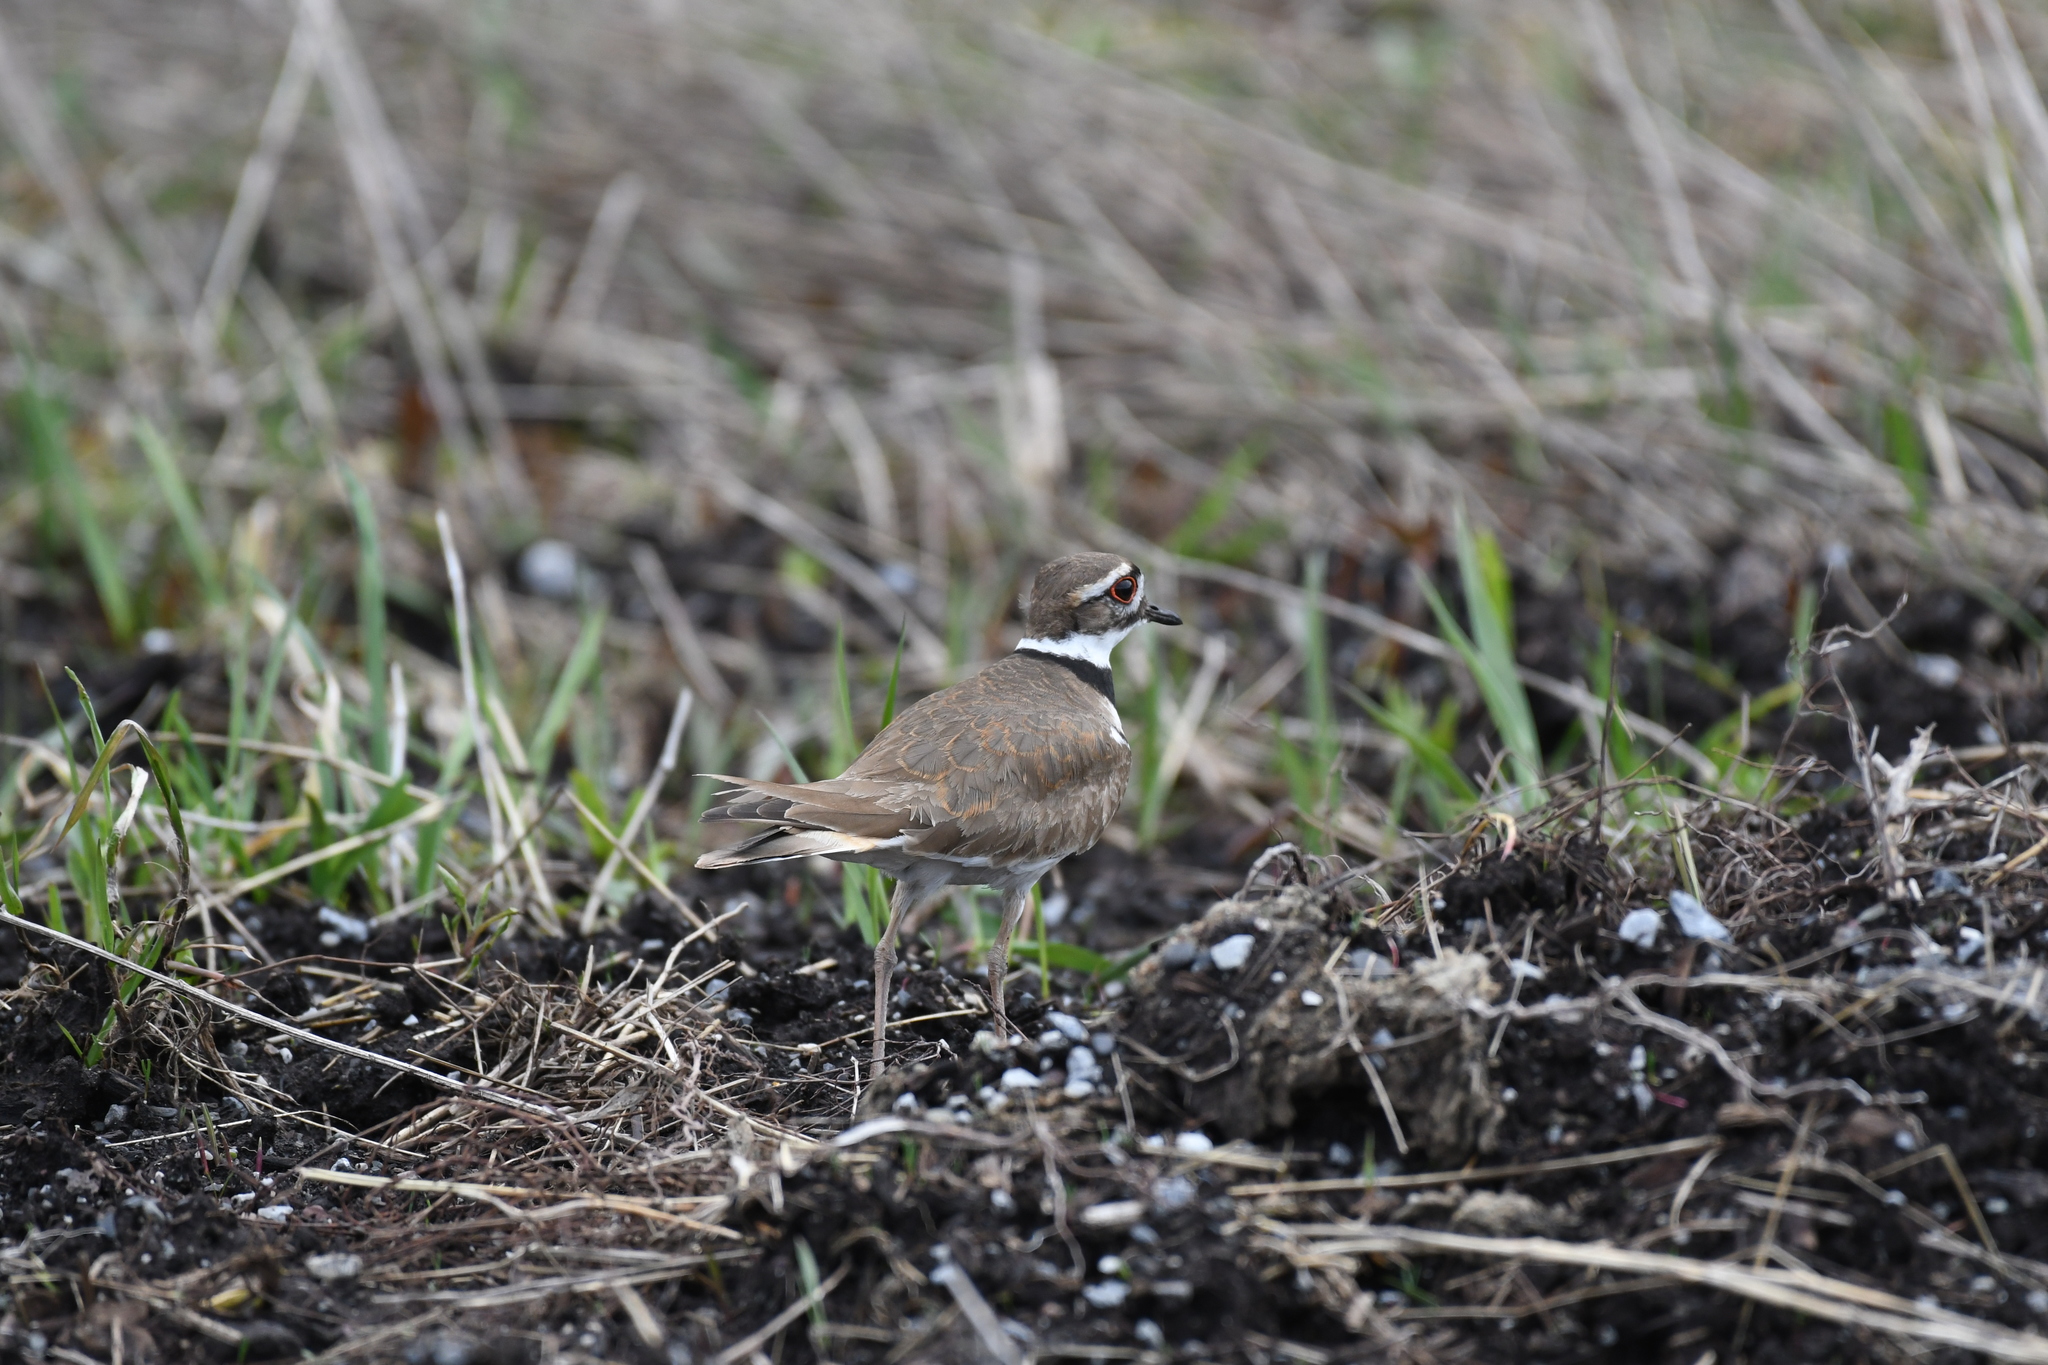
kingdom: Animalia
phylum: Chordata
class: Aves
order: Charadriiformes
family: Charadriidae
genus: Charadrius
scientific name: Charadrius vociferus
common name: Killdeer
